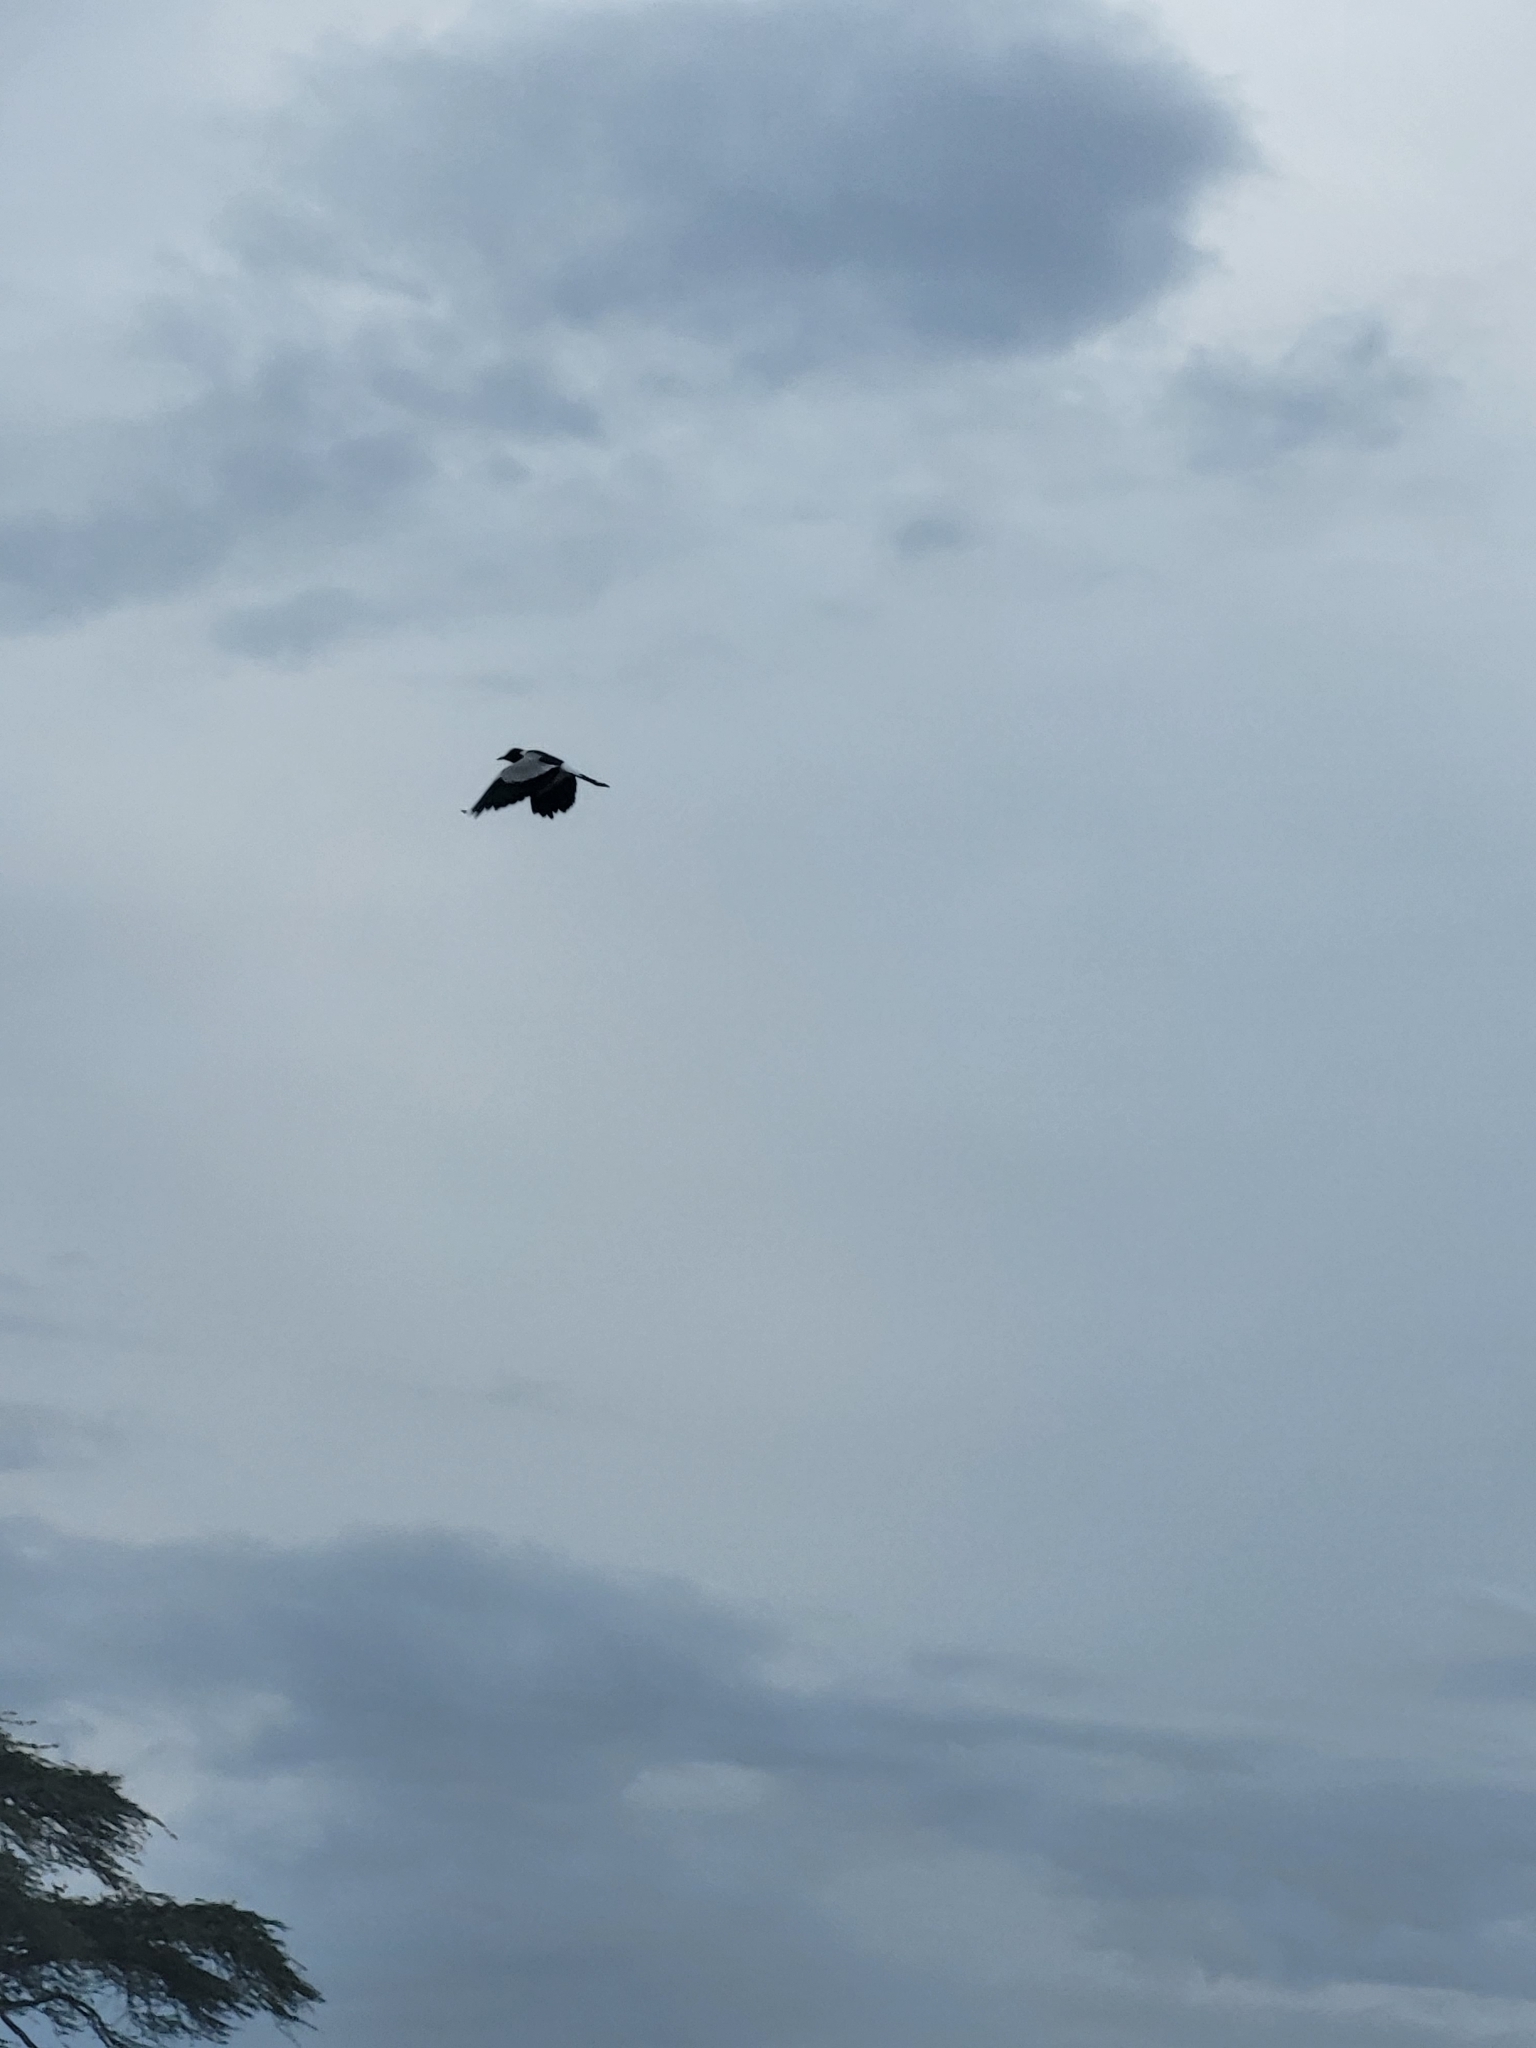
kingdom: Animalia
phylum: Chordata
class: Aves
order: Charadriiformes
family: Charadriidae
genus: Vanellus
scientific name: Vanellus armatus
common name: Blacksmith lapwing
